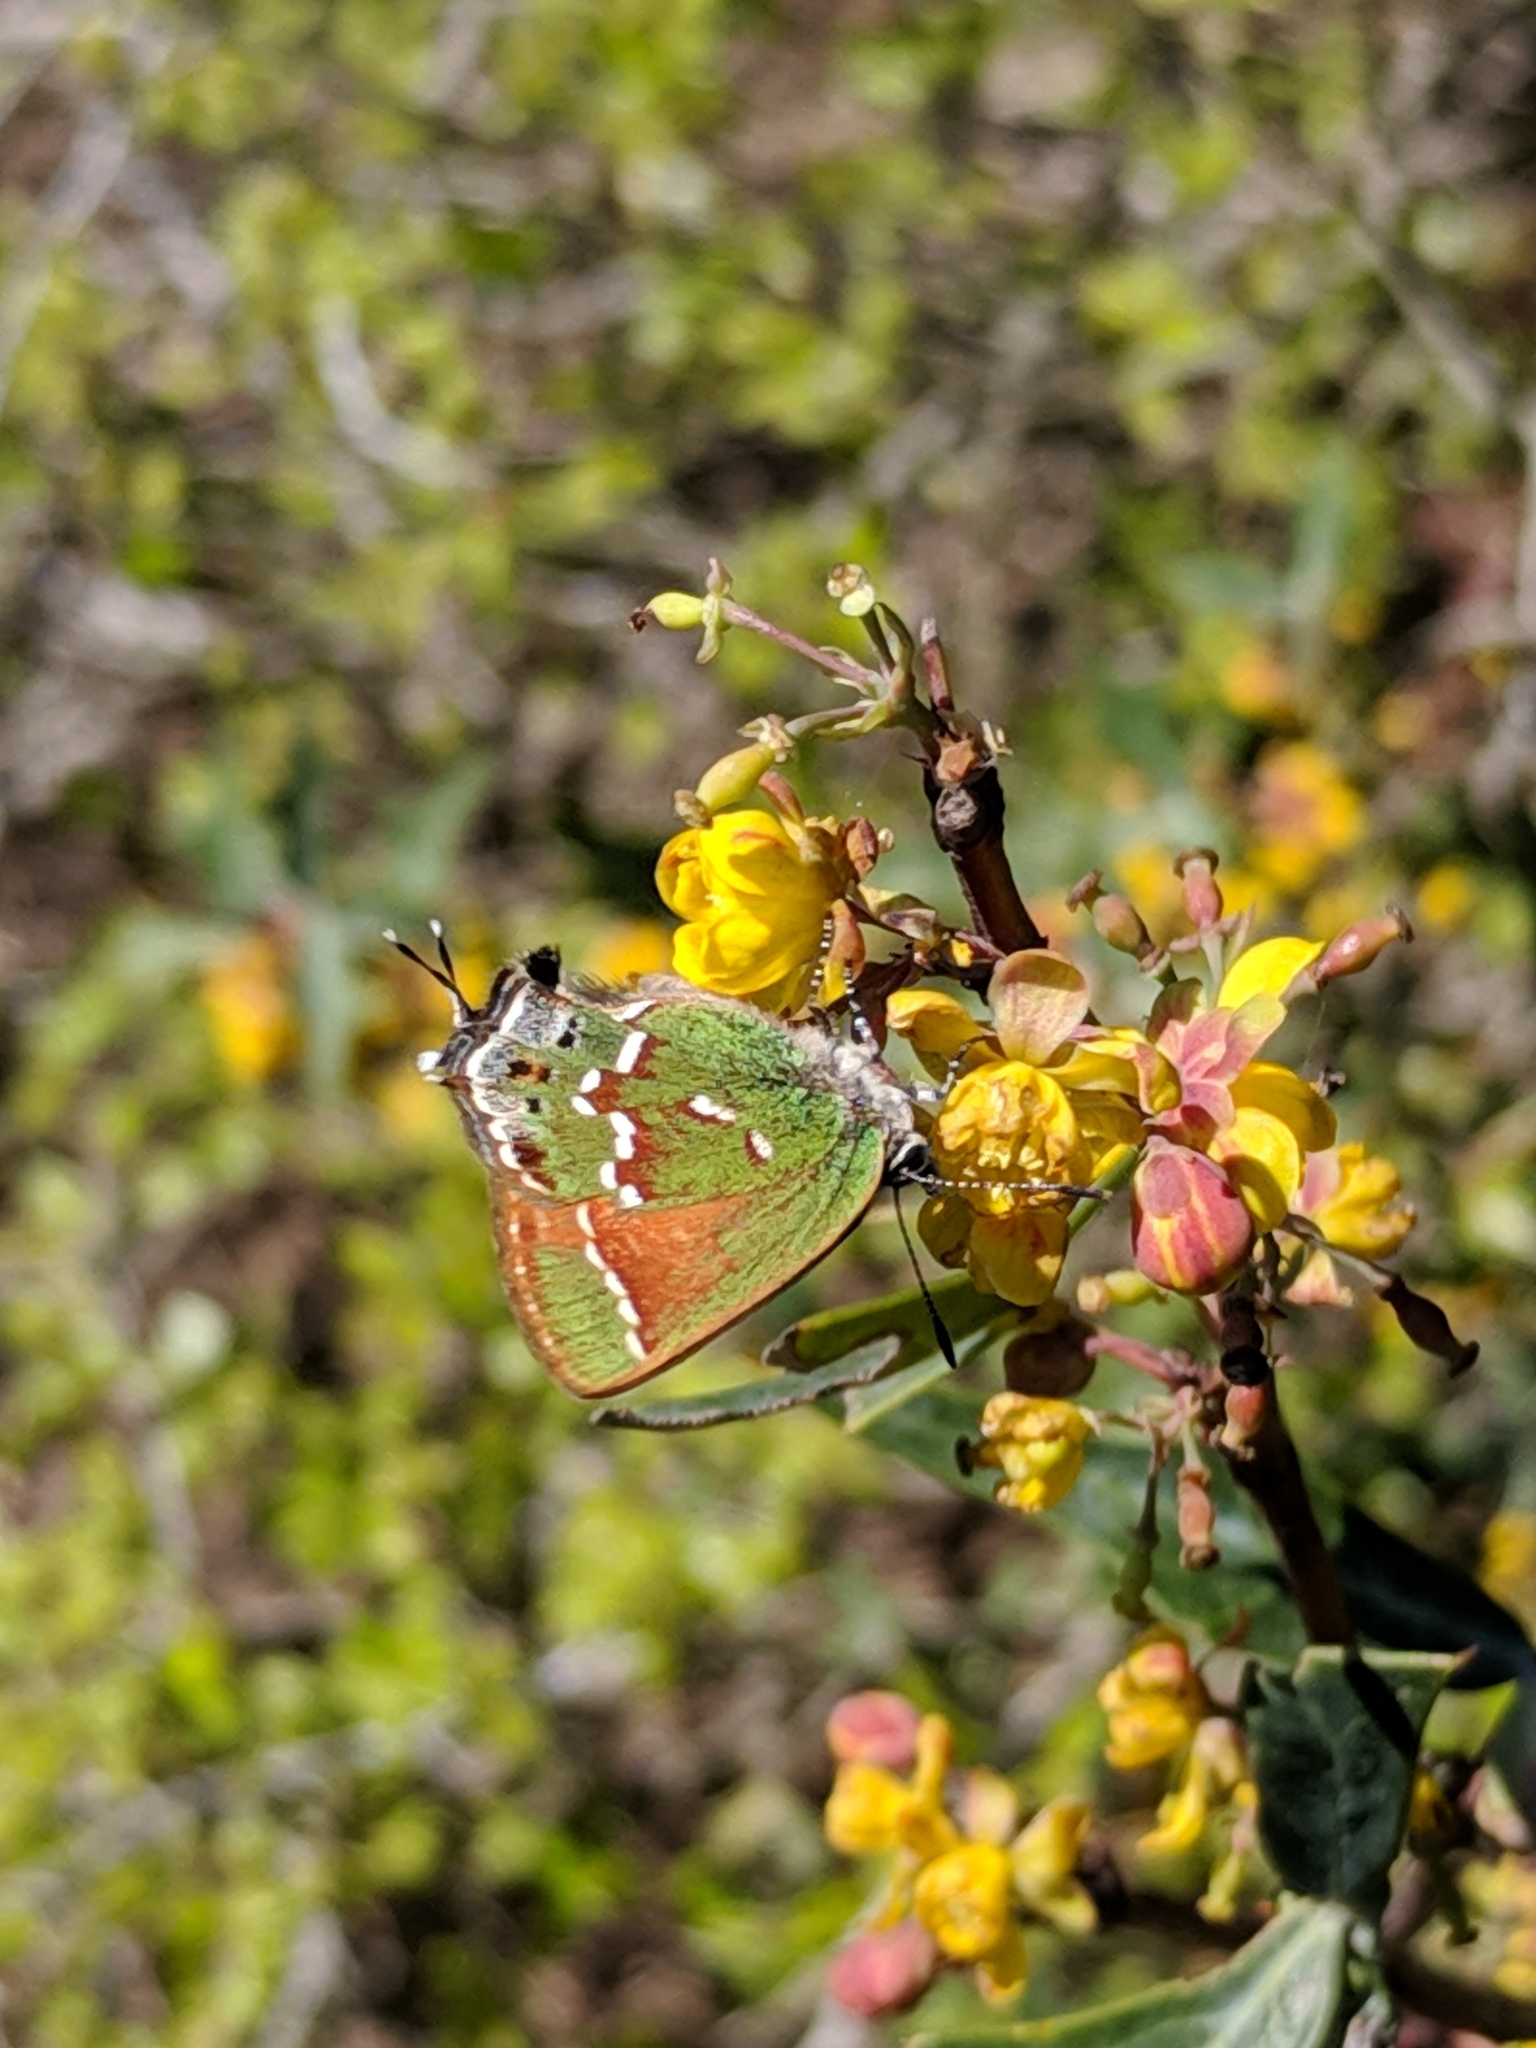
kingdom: Animalia
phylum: Arthropoda
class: Insecta
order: Lepidoptera
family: Lycaenidae
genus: Mitoura
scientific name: Mitoura gryneus
